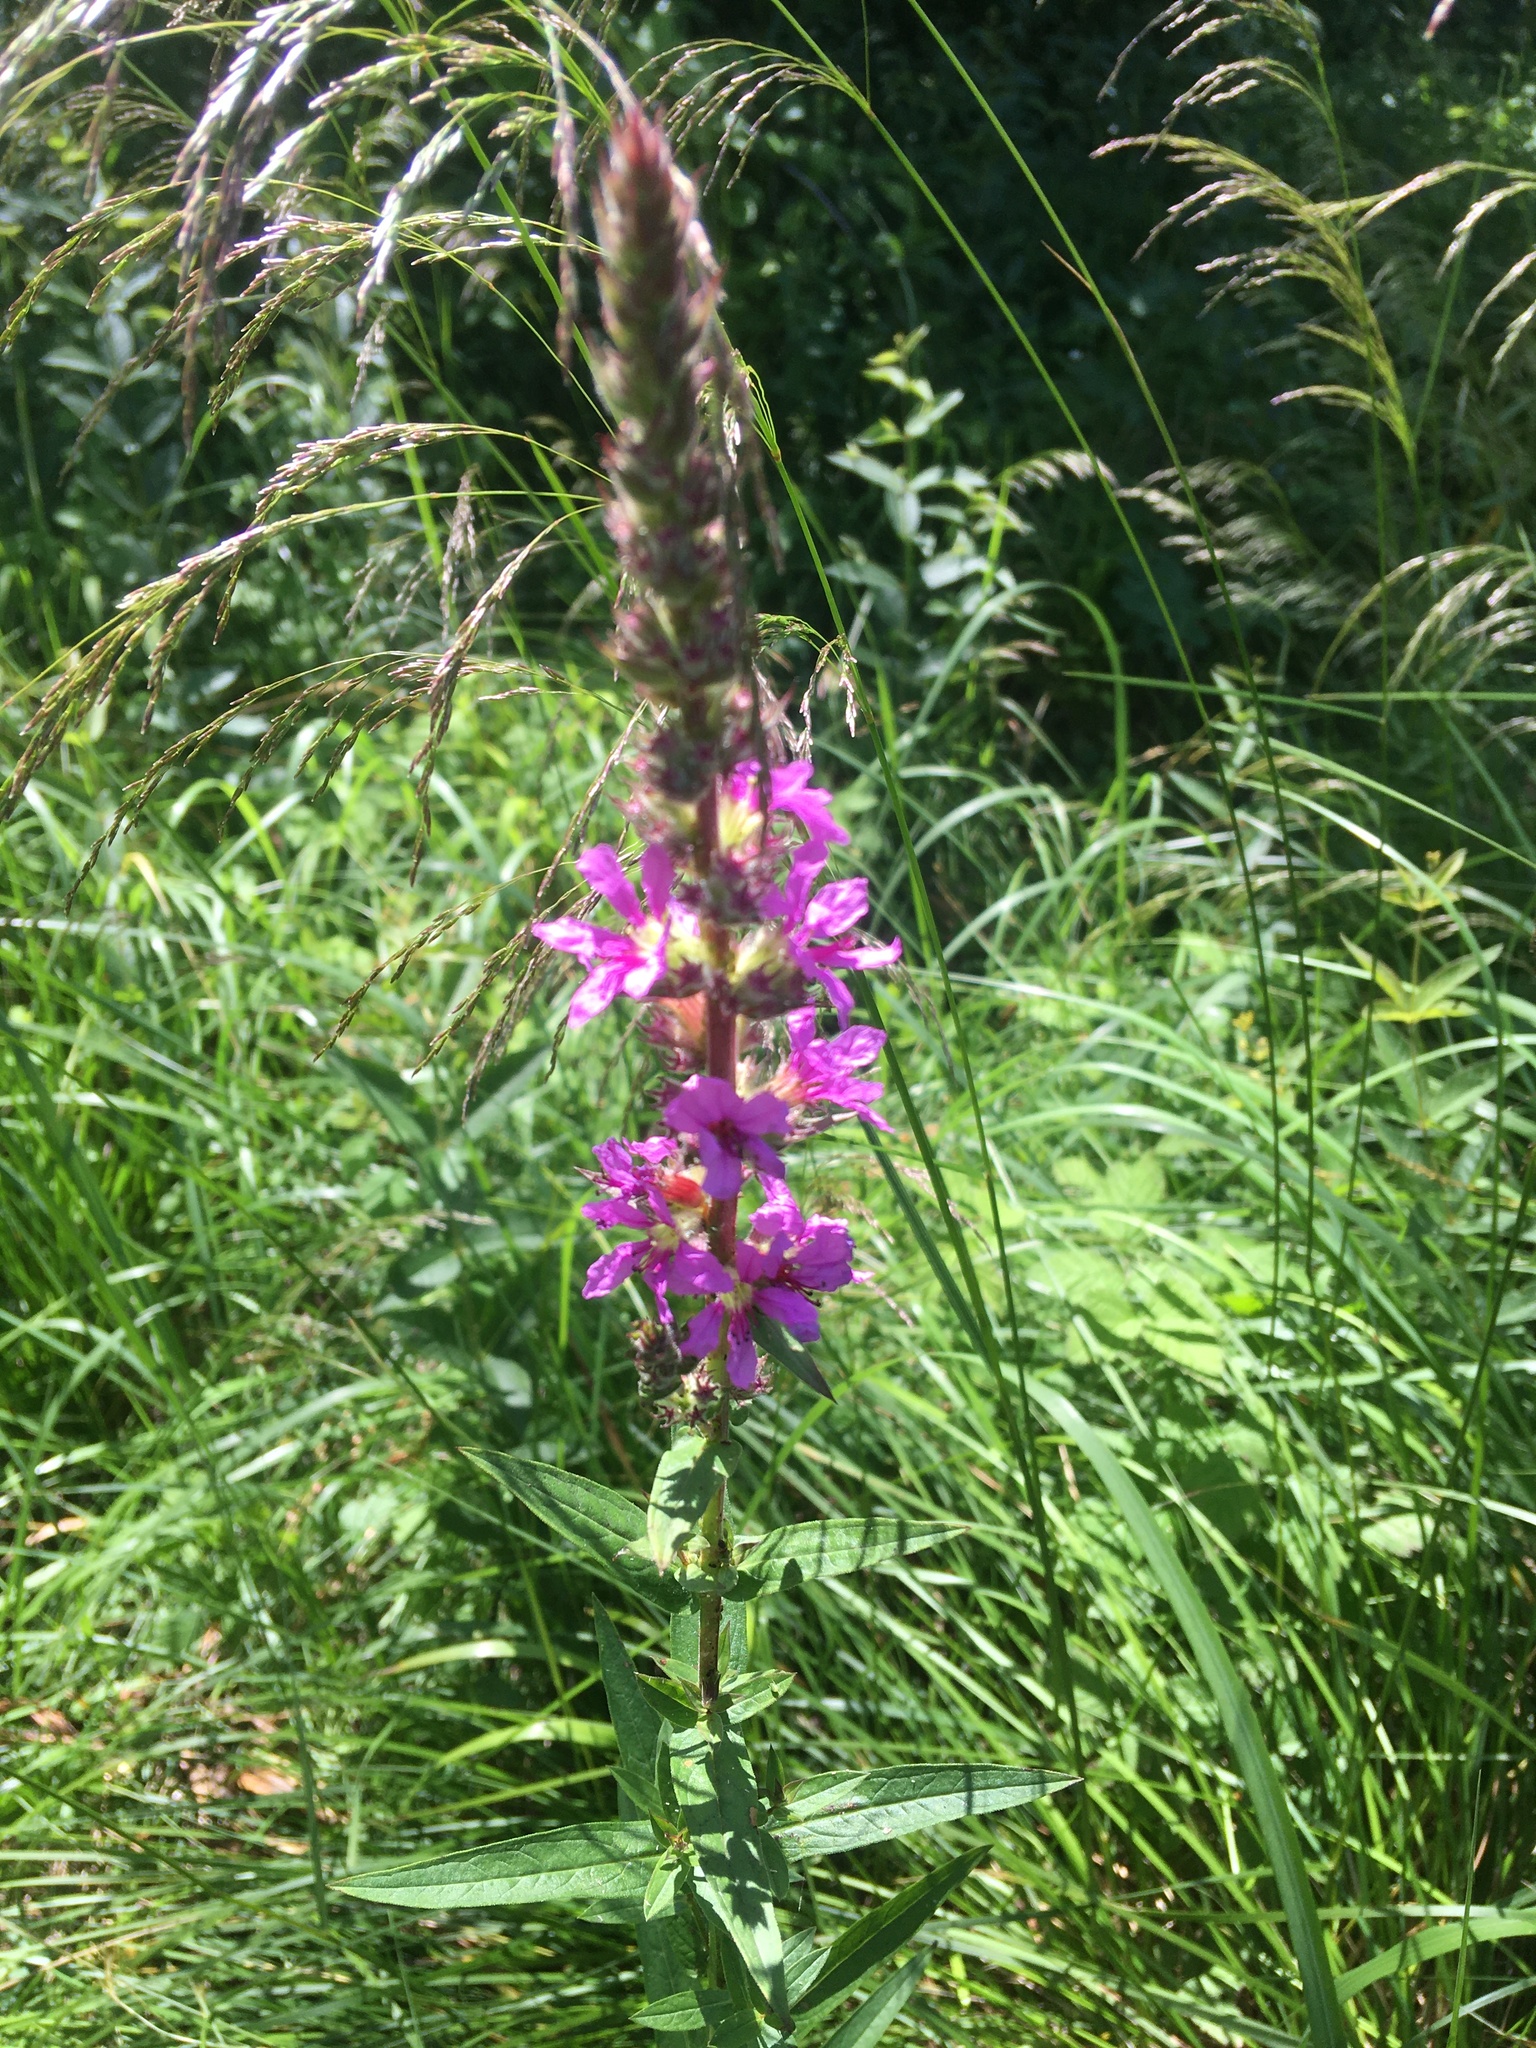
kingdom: Plantae
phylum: Tracheophyta
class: Magnoliopsida
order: Myrtales
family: Lythraceae
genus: Lythrum
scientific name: Lythrum salicaria
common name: Purple loosestrife
